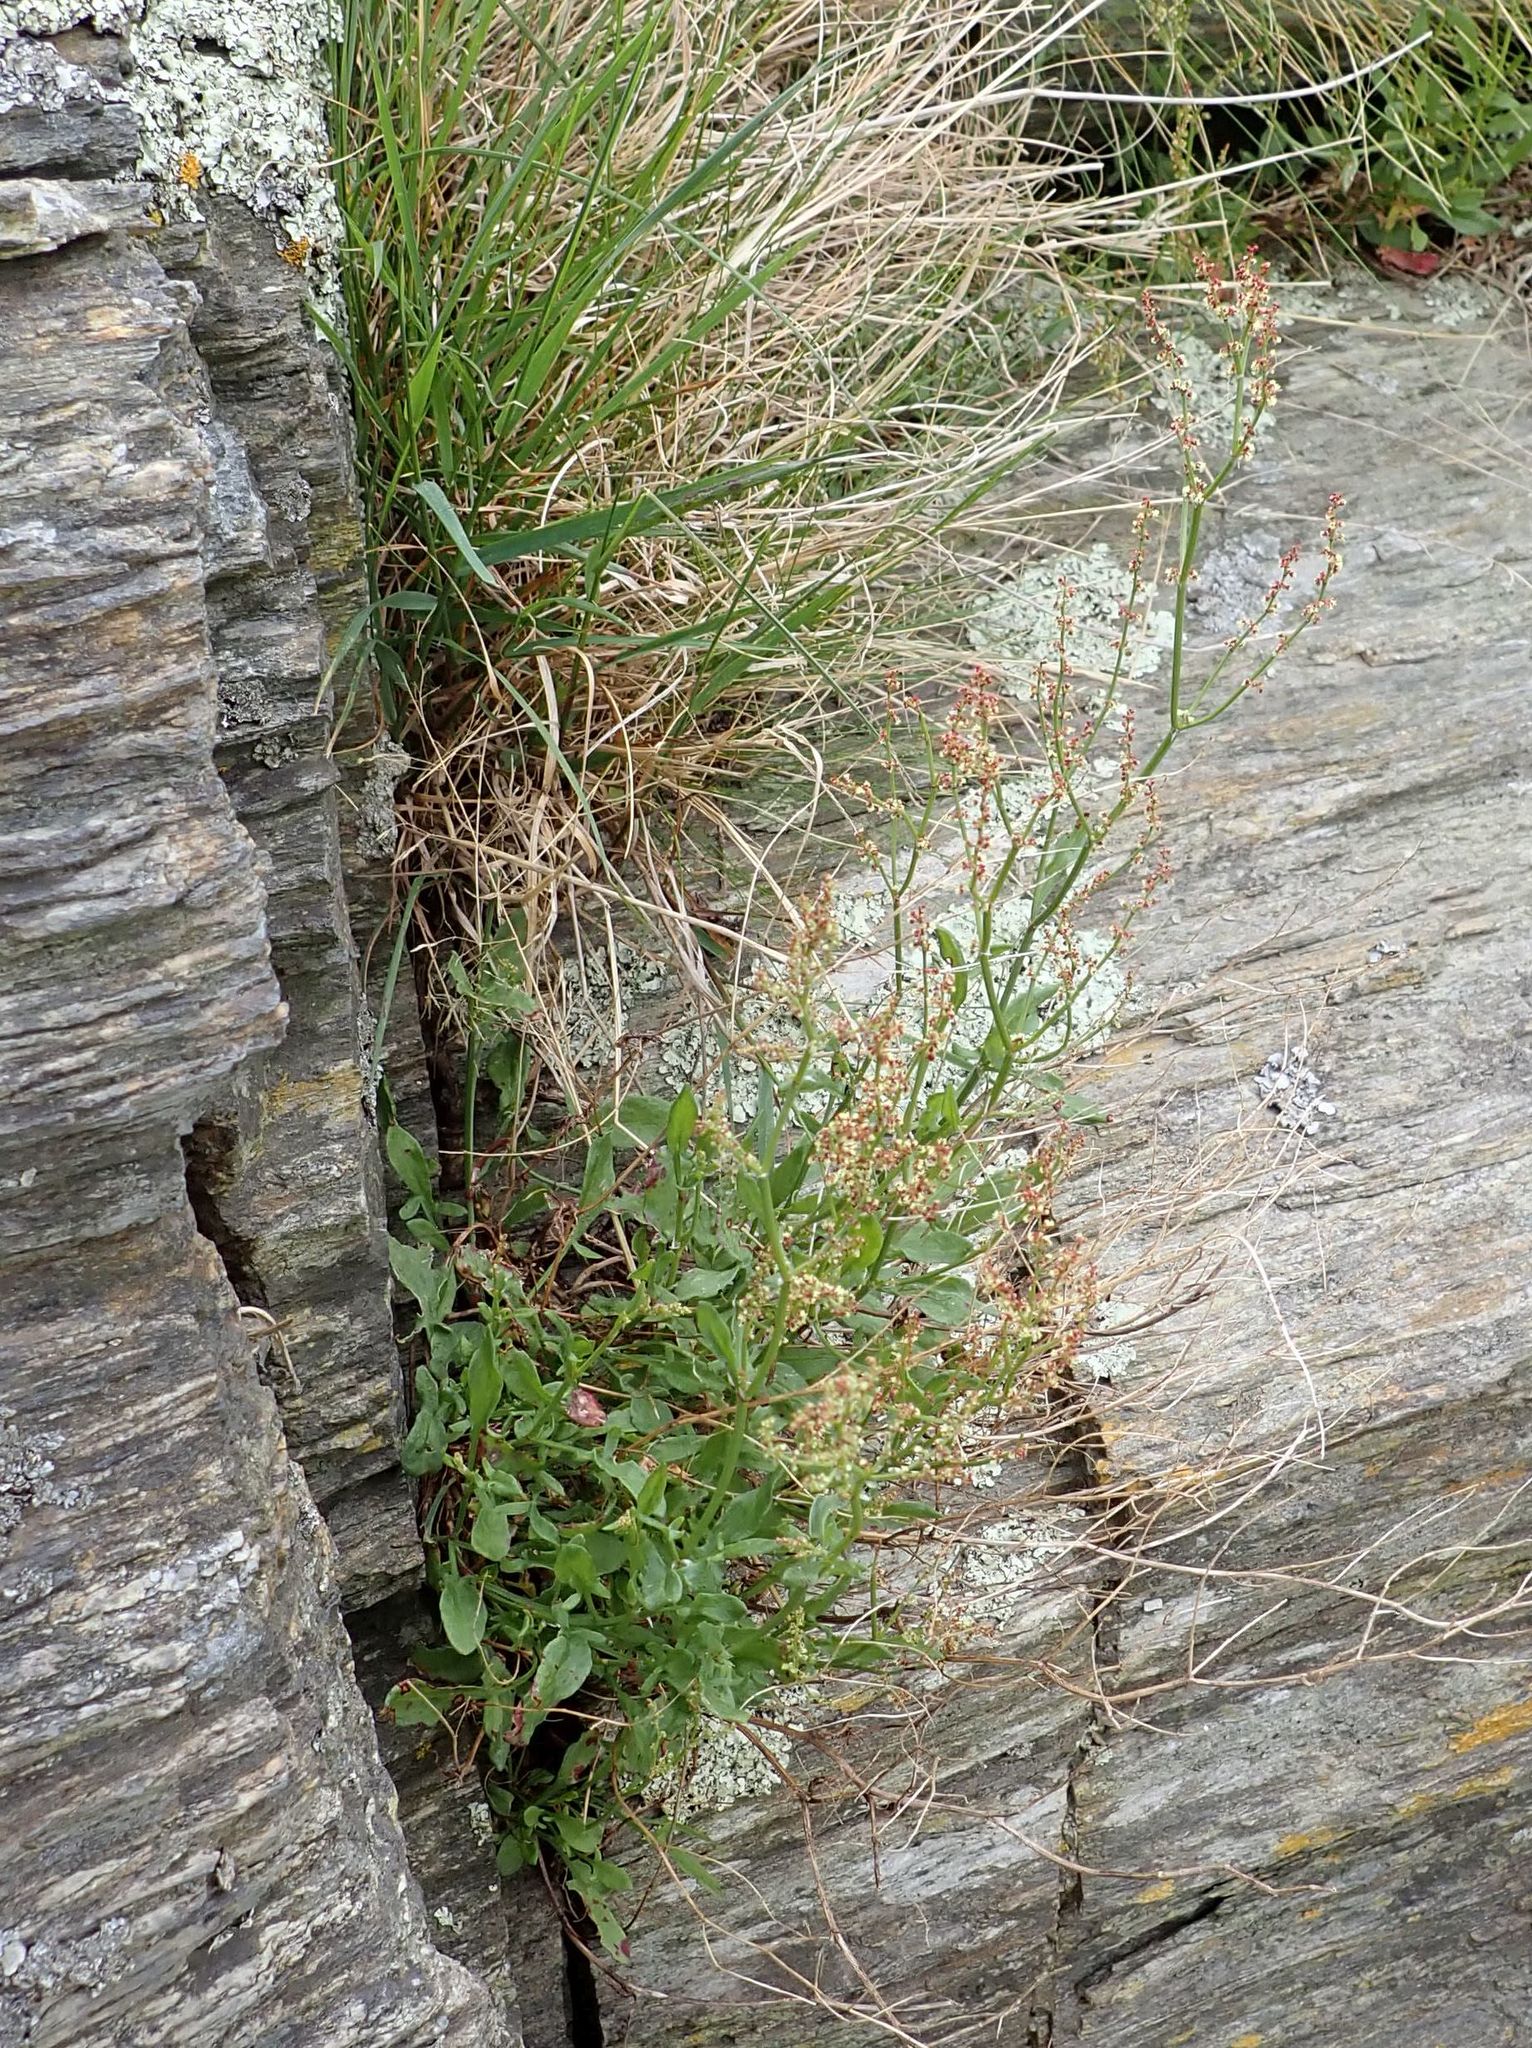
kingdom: Plantae
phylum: Tracheophyta
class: Magnoliopsida
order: Caryophyllales
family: Polygonaceae
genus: Rumex
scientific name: Rumex acetosella
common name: Common sheep sorrel
